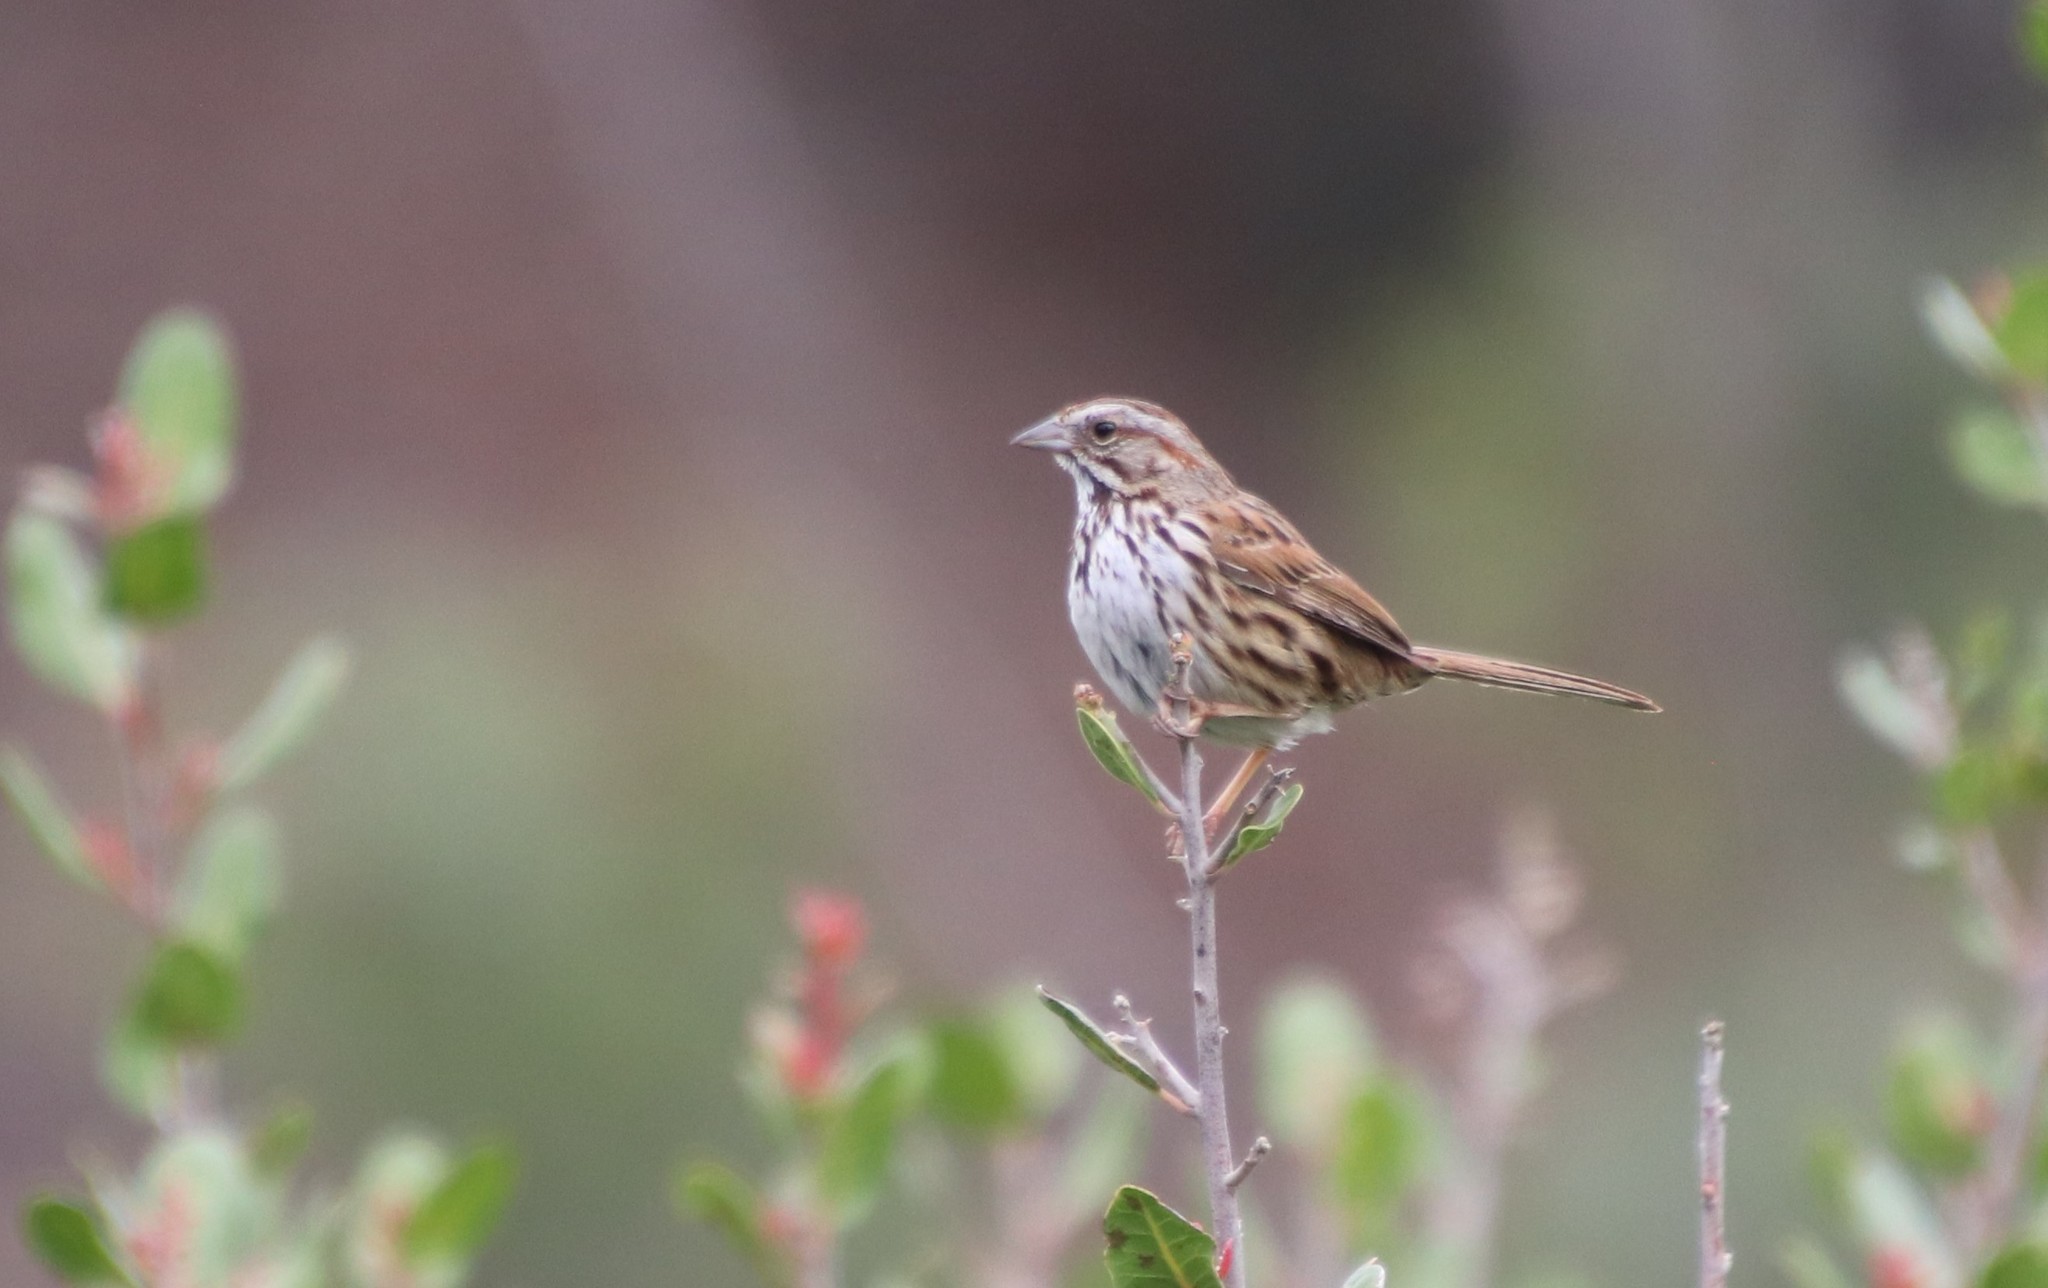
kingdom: Animalia
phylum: Chordata
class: Aves
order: Passeriformes
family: Passerellidae
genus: Melospiza
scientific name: Melospiza melodia
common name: Song sparrow
